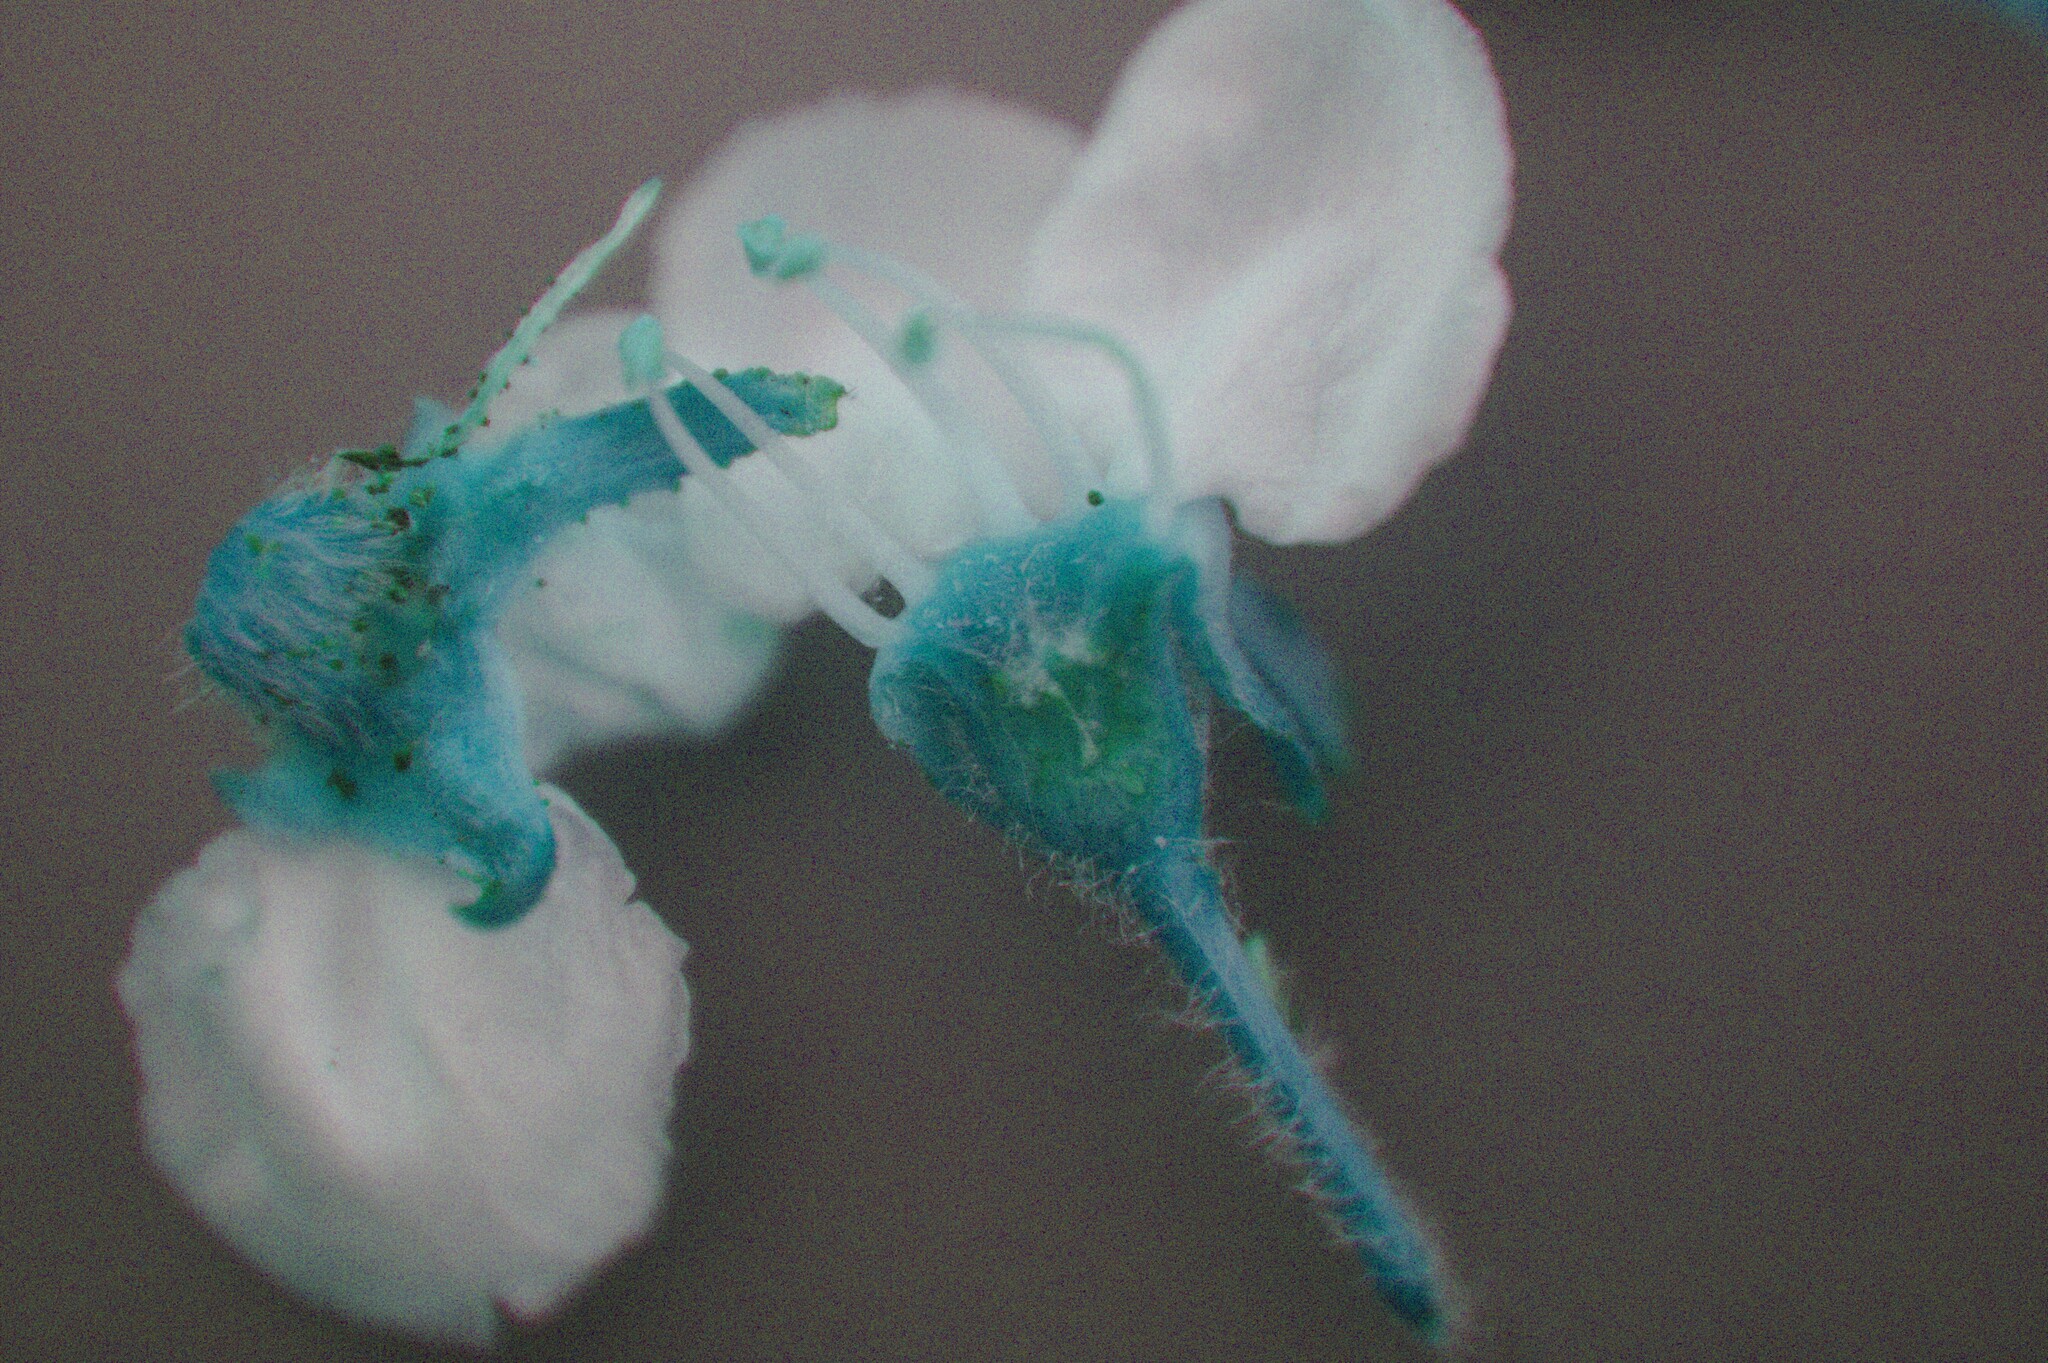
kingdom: Plantae
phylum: Tracheophyta
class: Magnoliopsida
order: Rosales
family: Rosaceae
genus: Crataegus
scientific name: Crataegus chrysocarpa
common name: Fire-berry hawthorn
